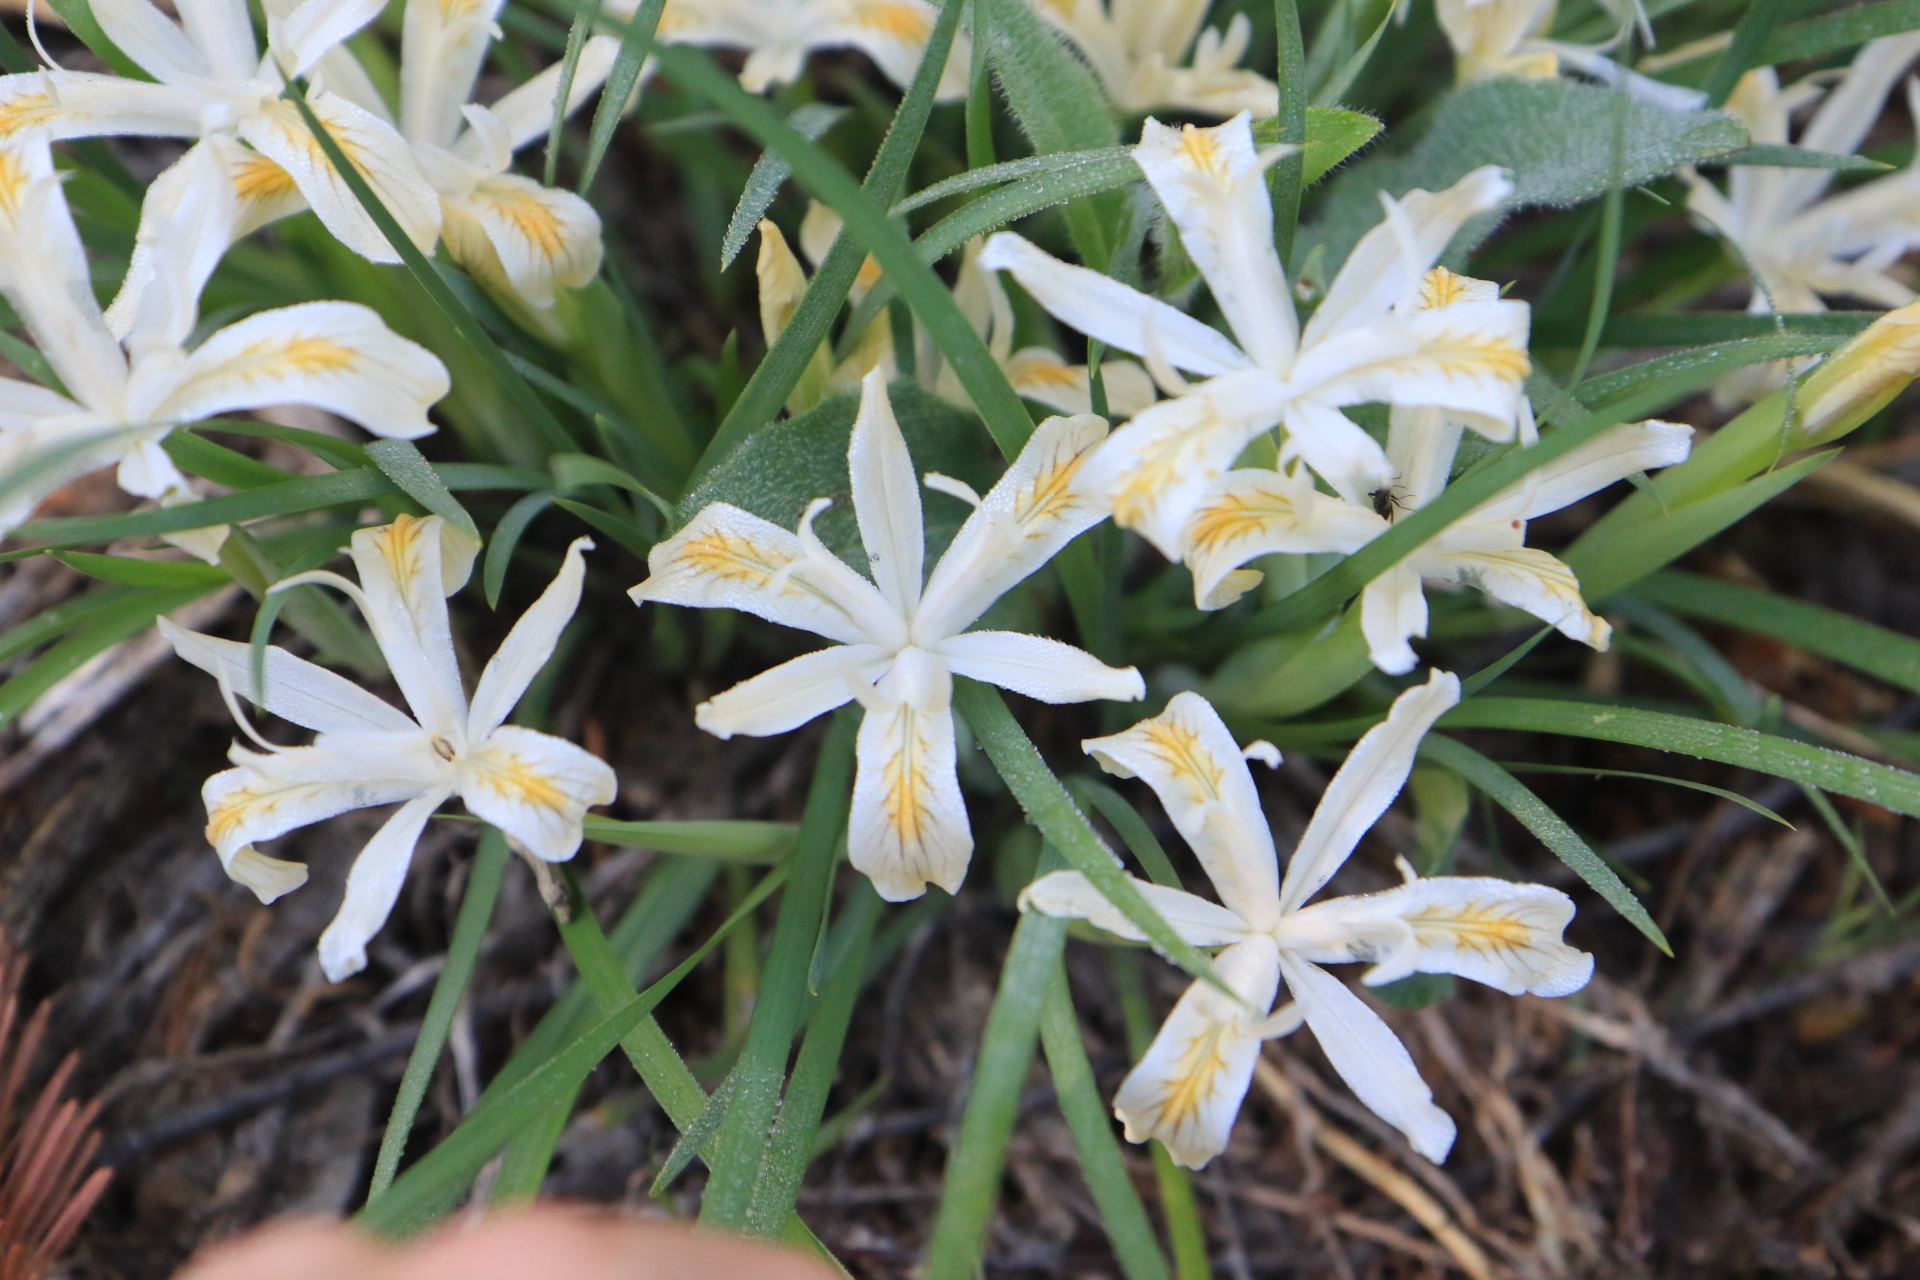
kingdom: Plantae
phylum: Tracheophyta
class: Liliopsida
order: Asparagales
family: Iridaceae
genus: Iris
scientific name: Iris chrysophylla
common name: Yellow-leaf iris
